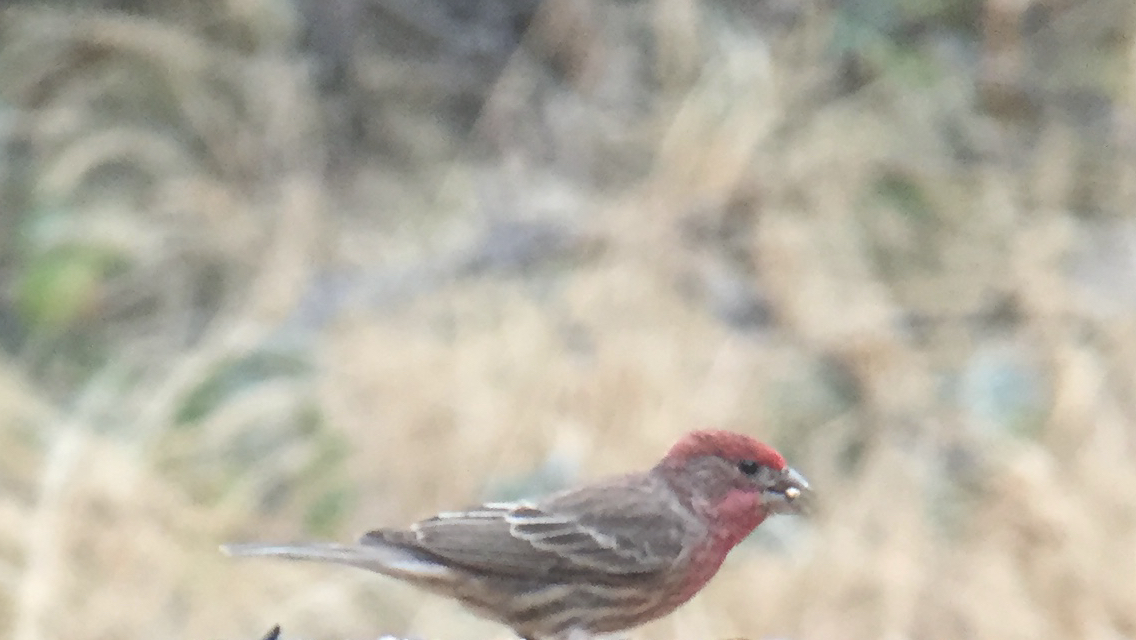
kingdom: Animalia
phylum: Chordata
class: Aves
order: Passeriformes
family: Fringillidae
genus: Haemorhous
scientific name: Haemorhous mexicanus
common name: House finch
